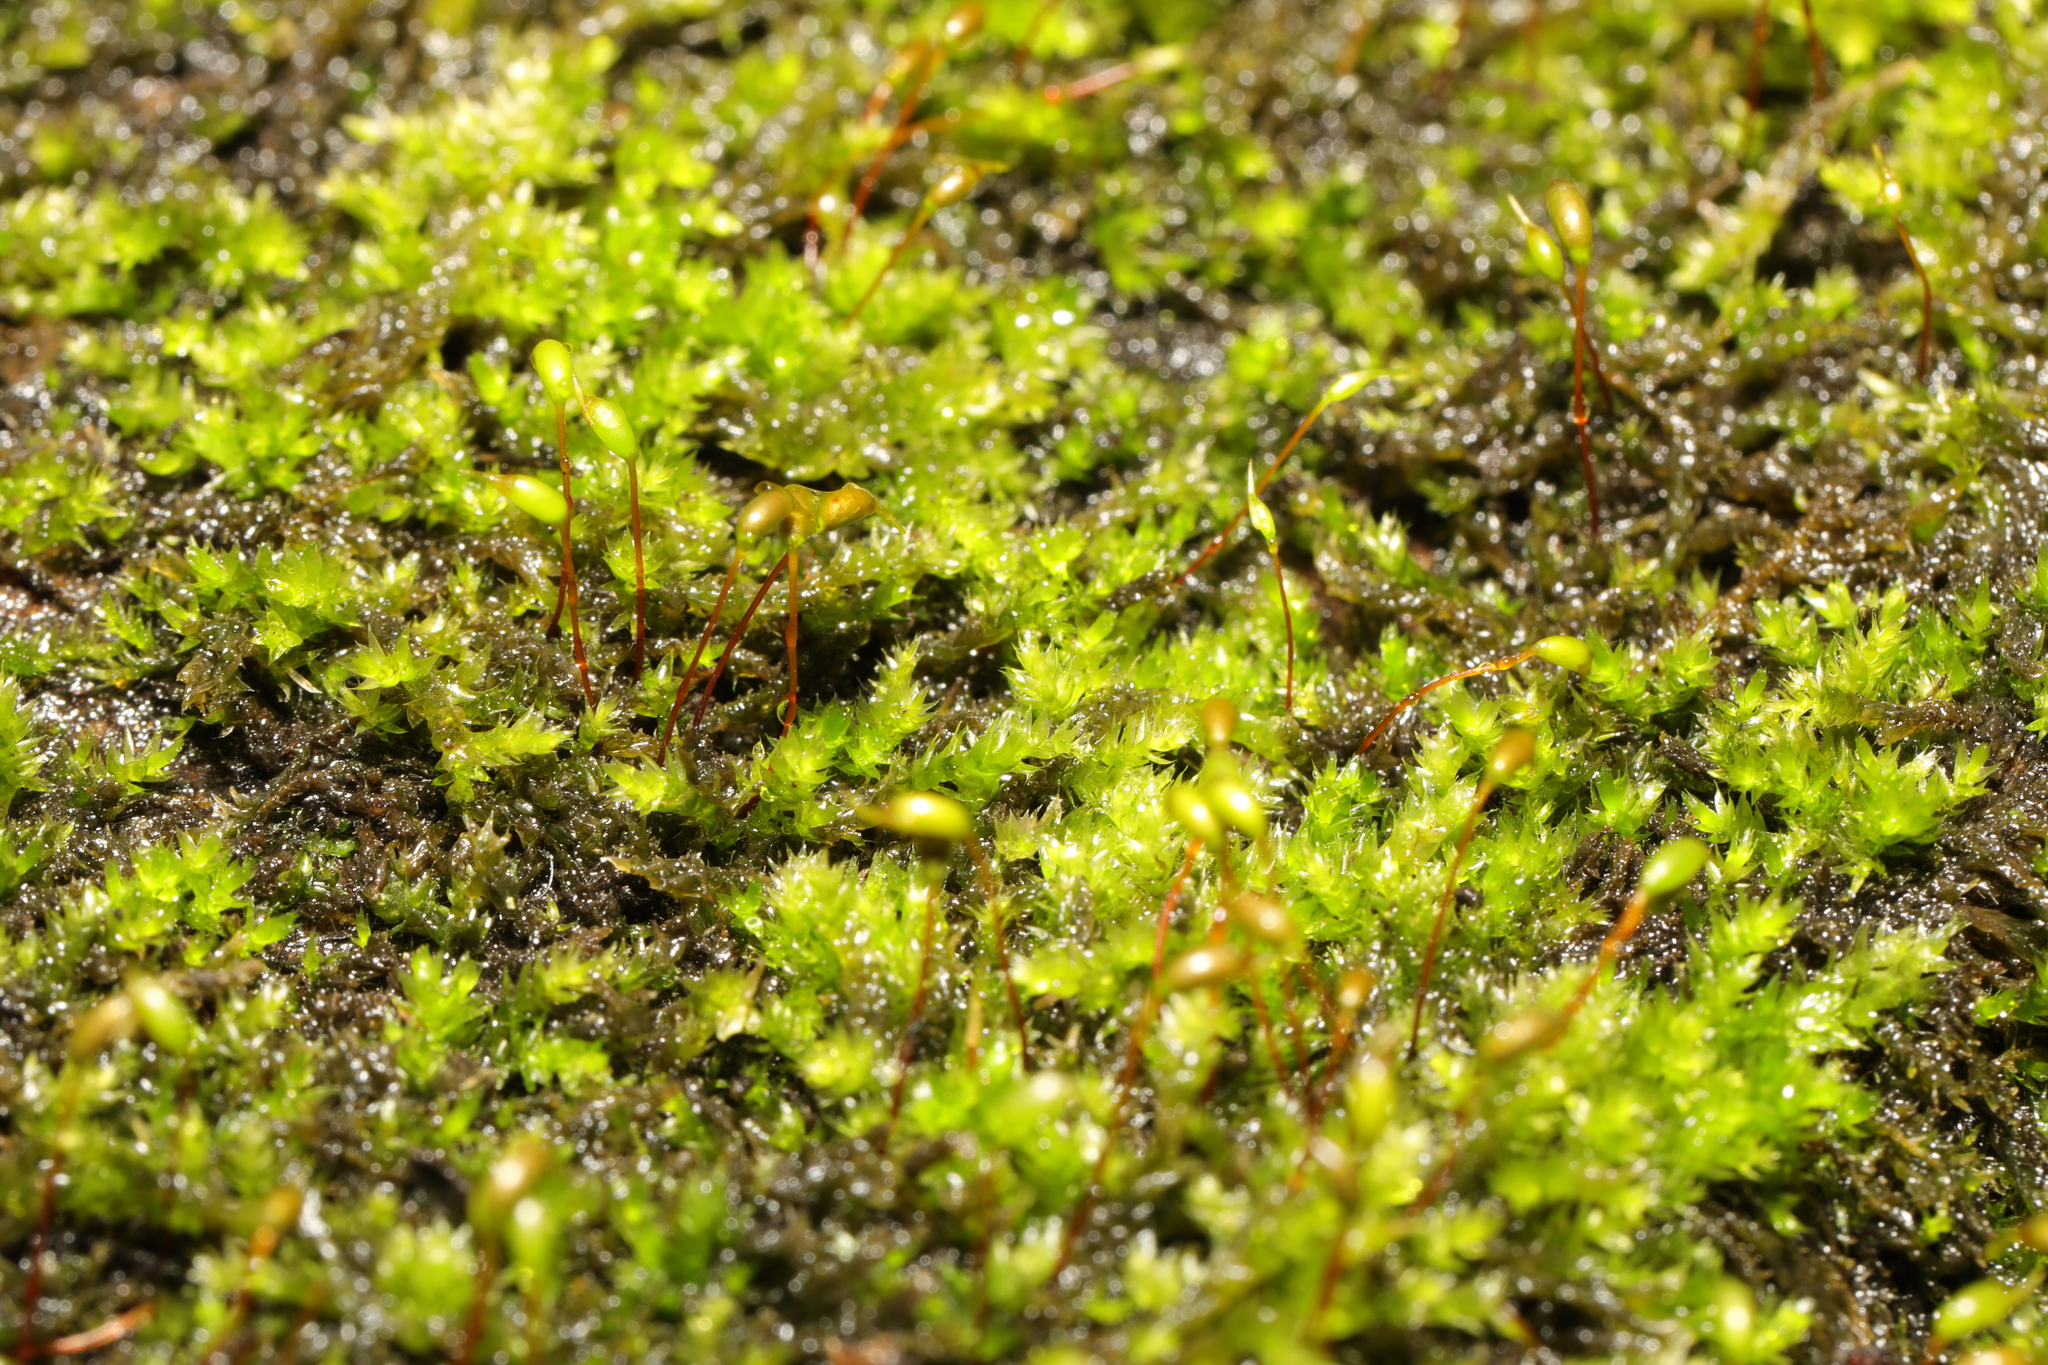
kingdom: Plantae
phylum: Bryophyta
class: Bryopsida
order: Hypnales
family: Brachytheciaceae
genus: Rhynchostegium
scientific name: Rhynchostegium confertum
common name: Clustered feather-moss
